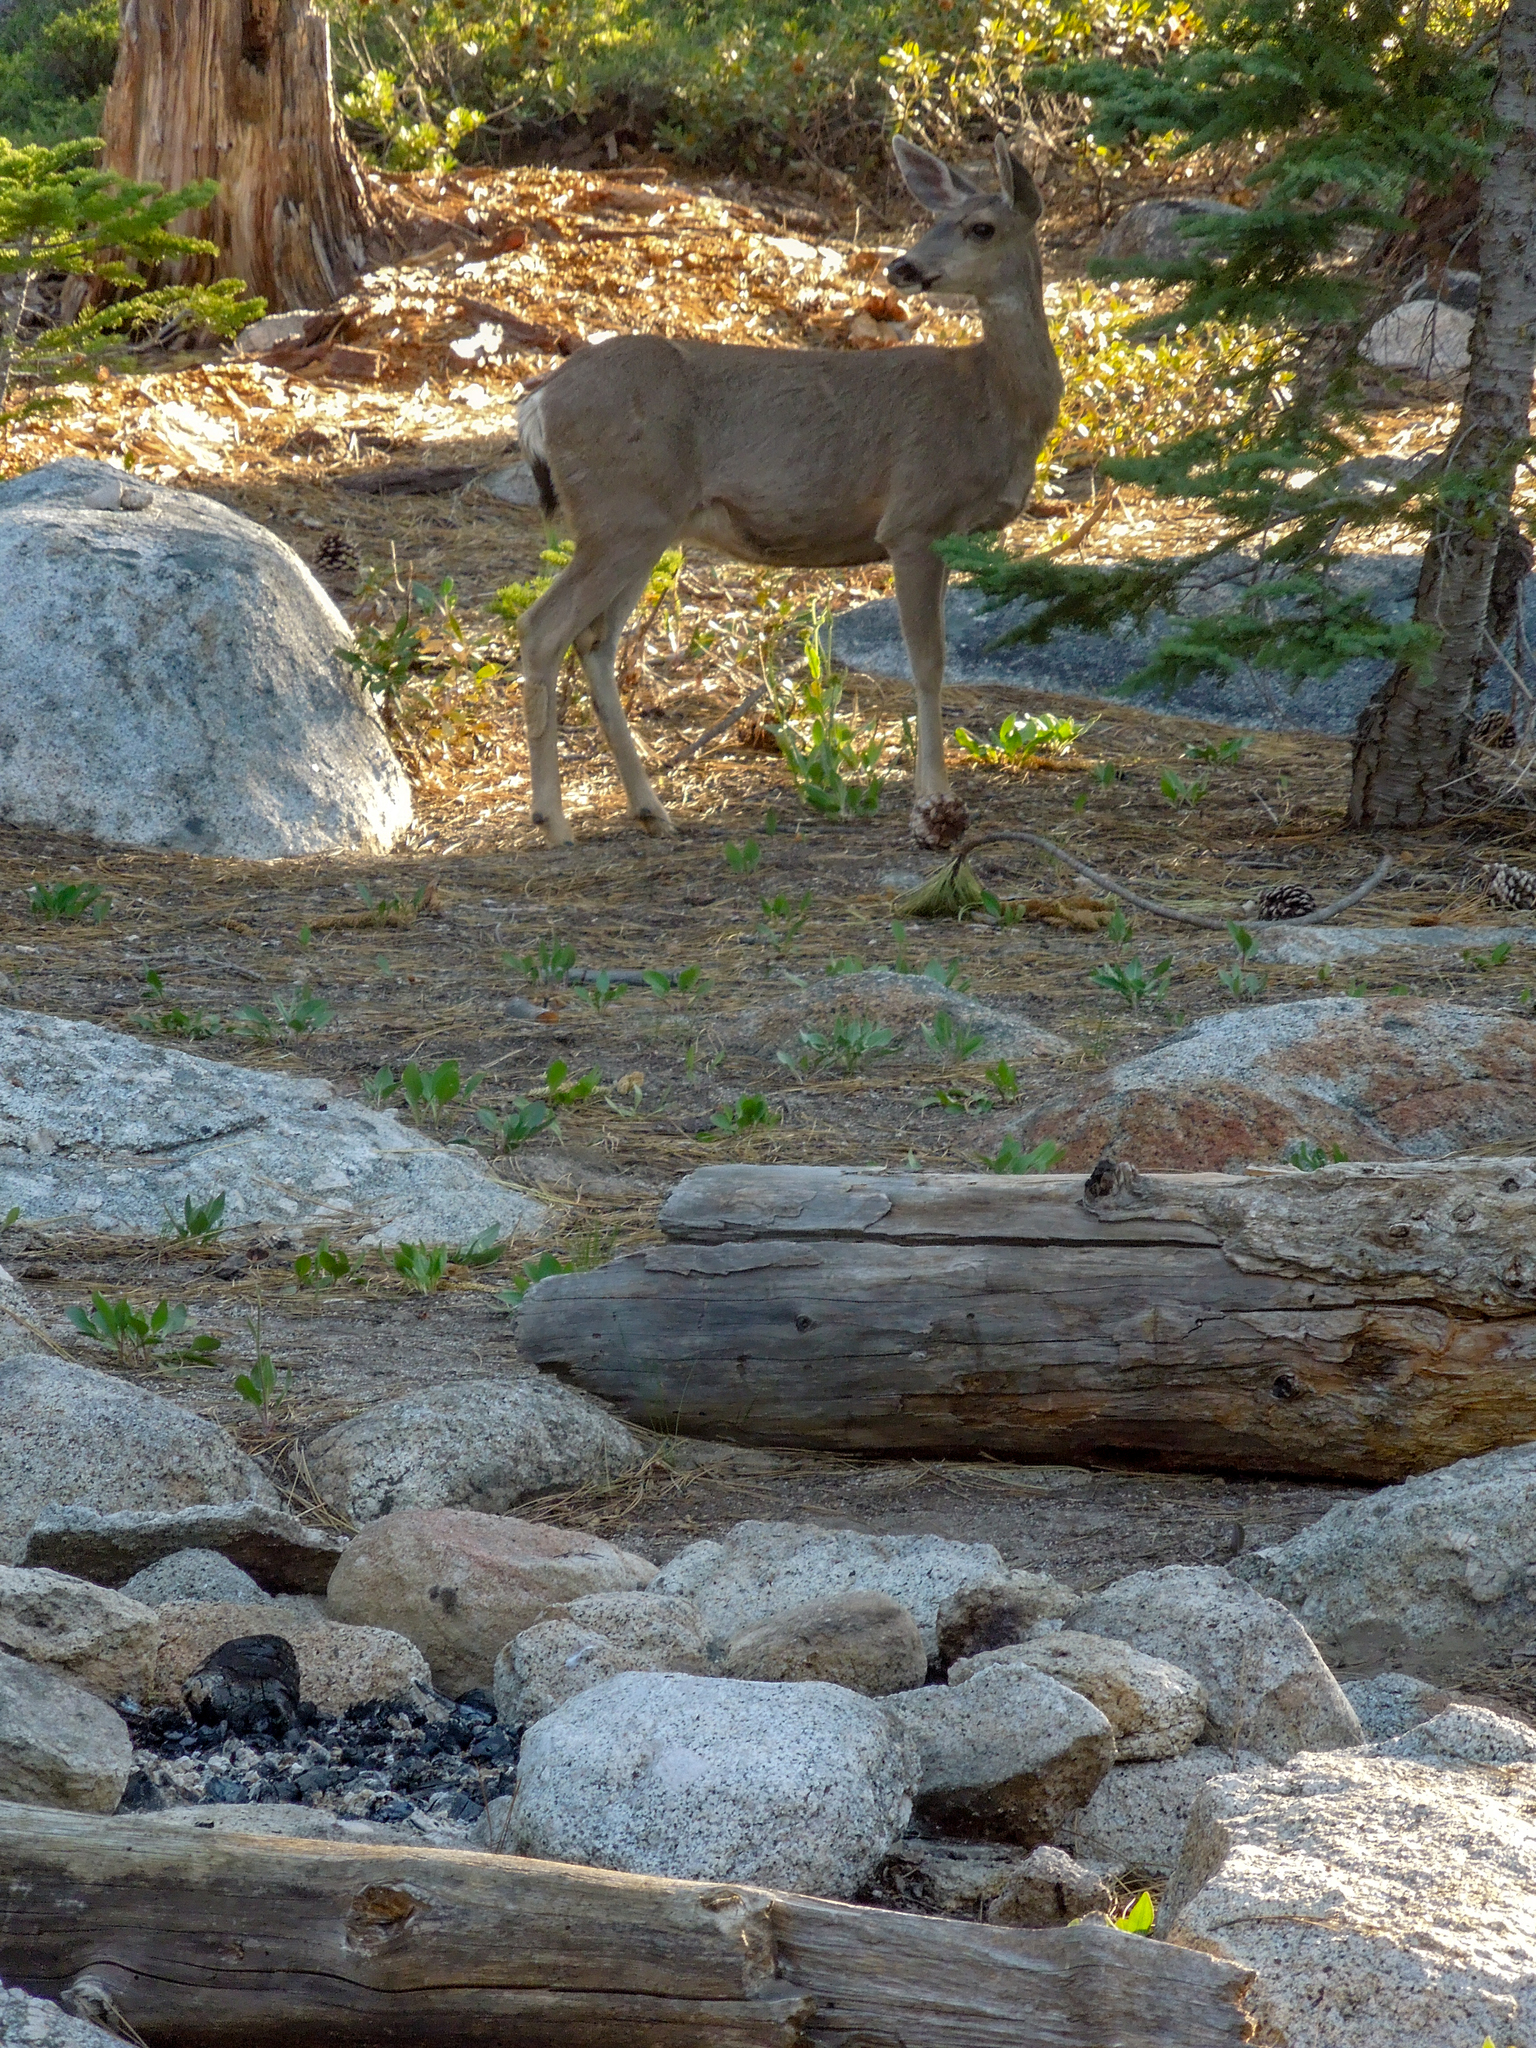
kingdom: Animalia
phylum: Chordata
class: Mammalia
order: Artiodactyla
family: Cervidae
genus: Odocoileus
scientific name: Odocoileus hemionus
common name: Mule deer
